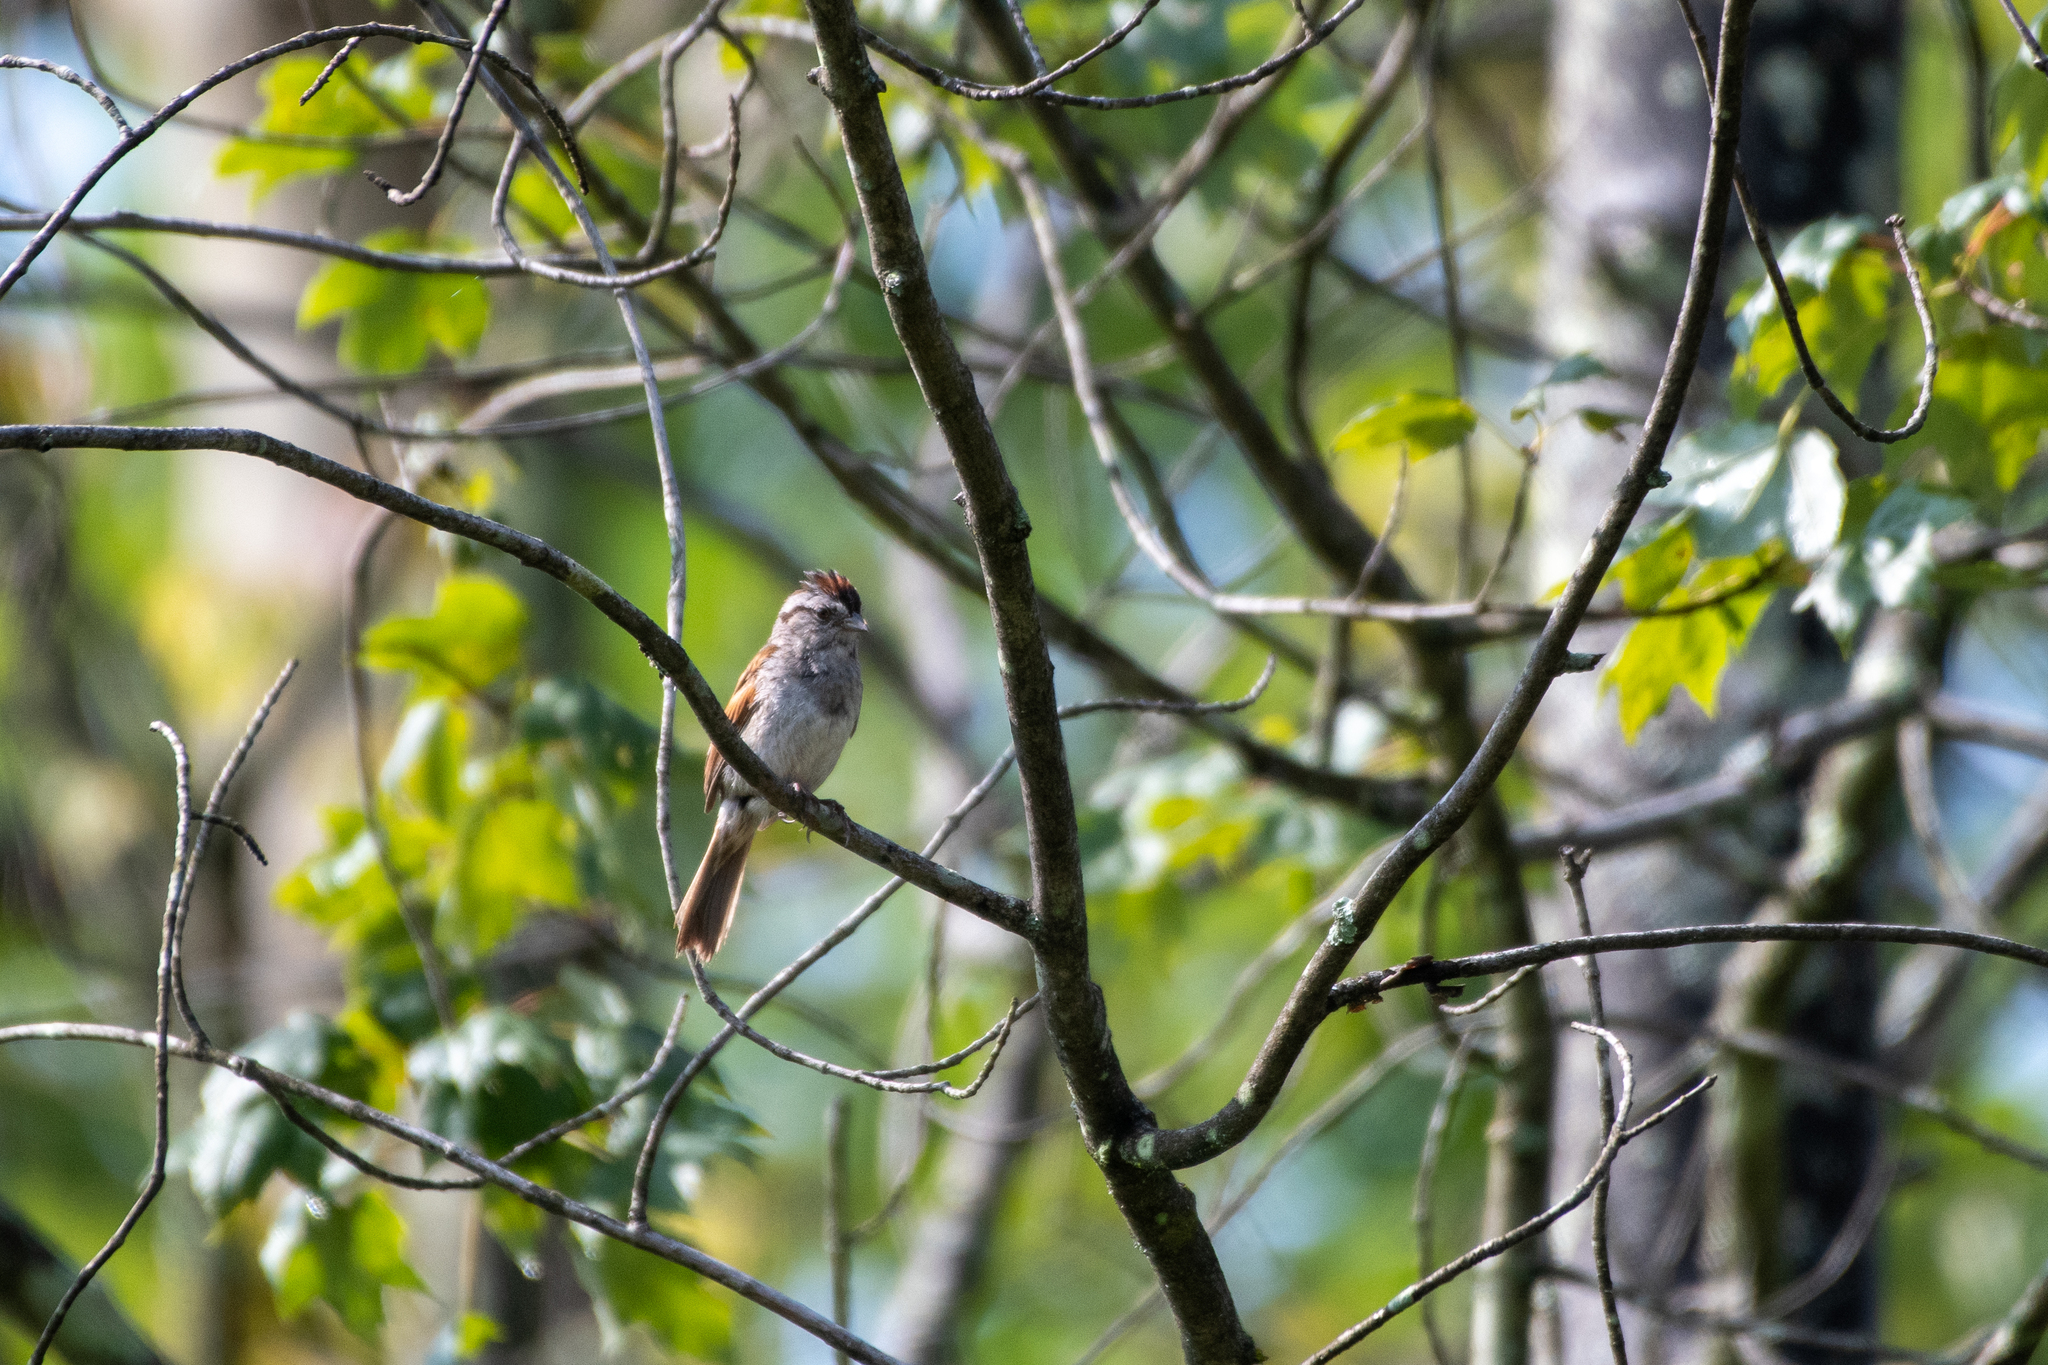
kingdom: Animalia
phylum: Chordata
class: Aves
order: Passeriformes
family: Passerellidae
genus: Melospiza
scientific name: Melospiza georgiana
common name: Swamp sparrow
